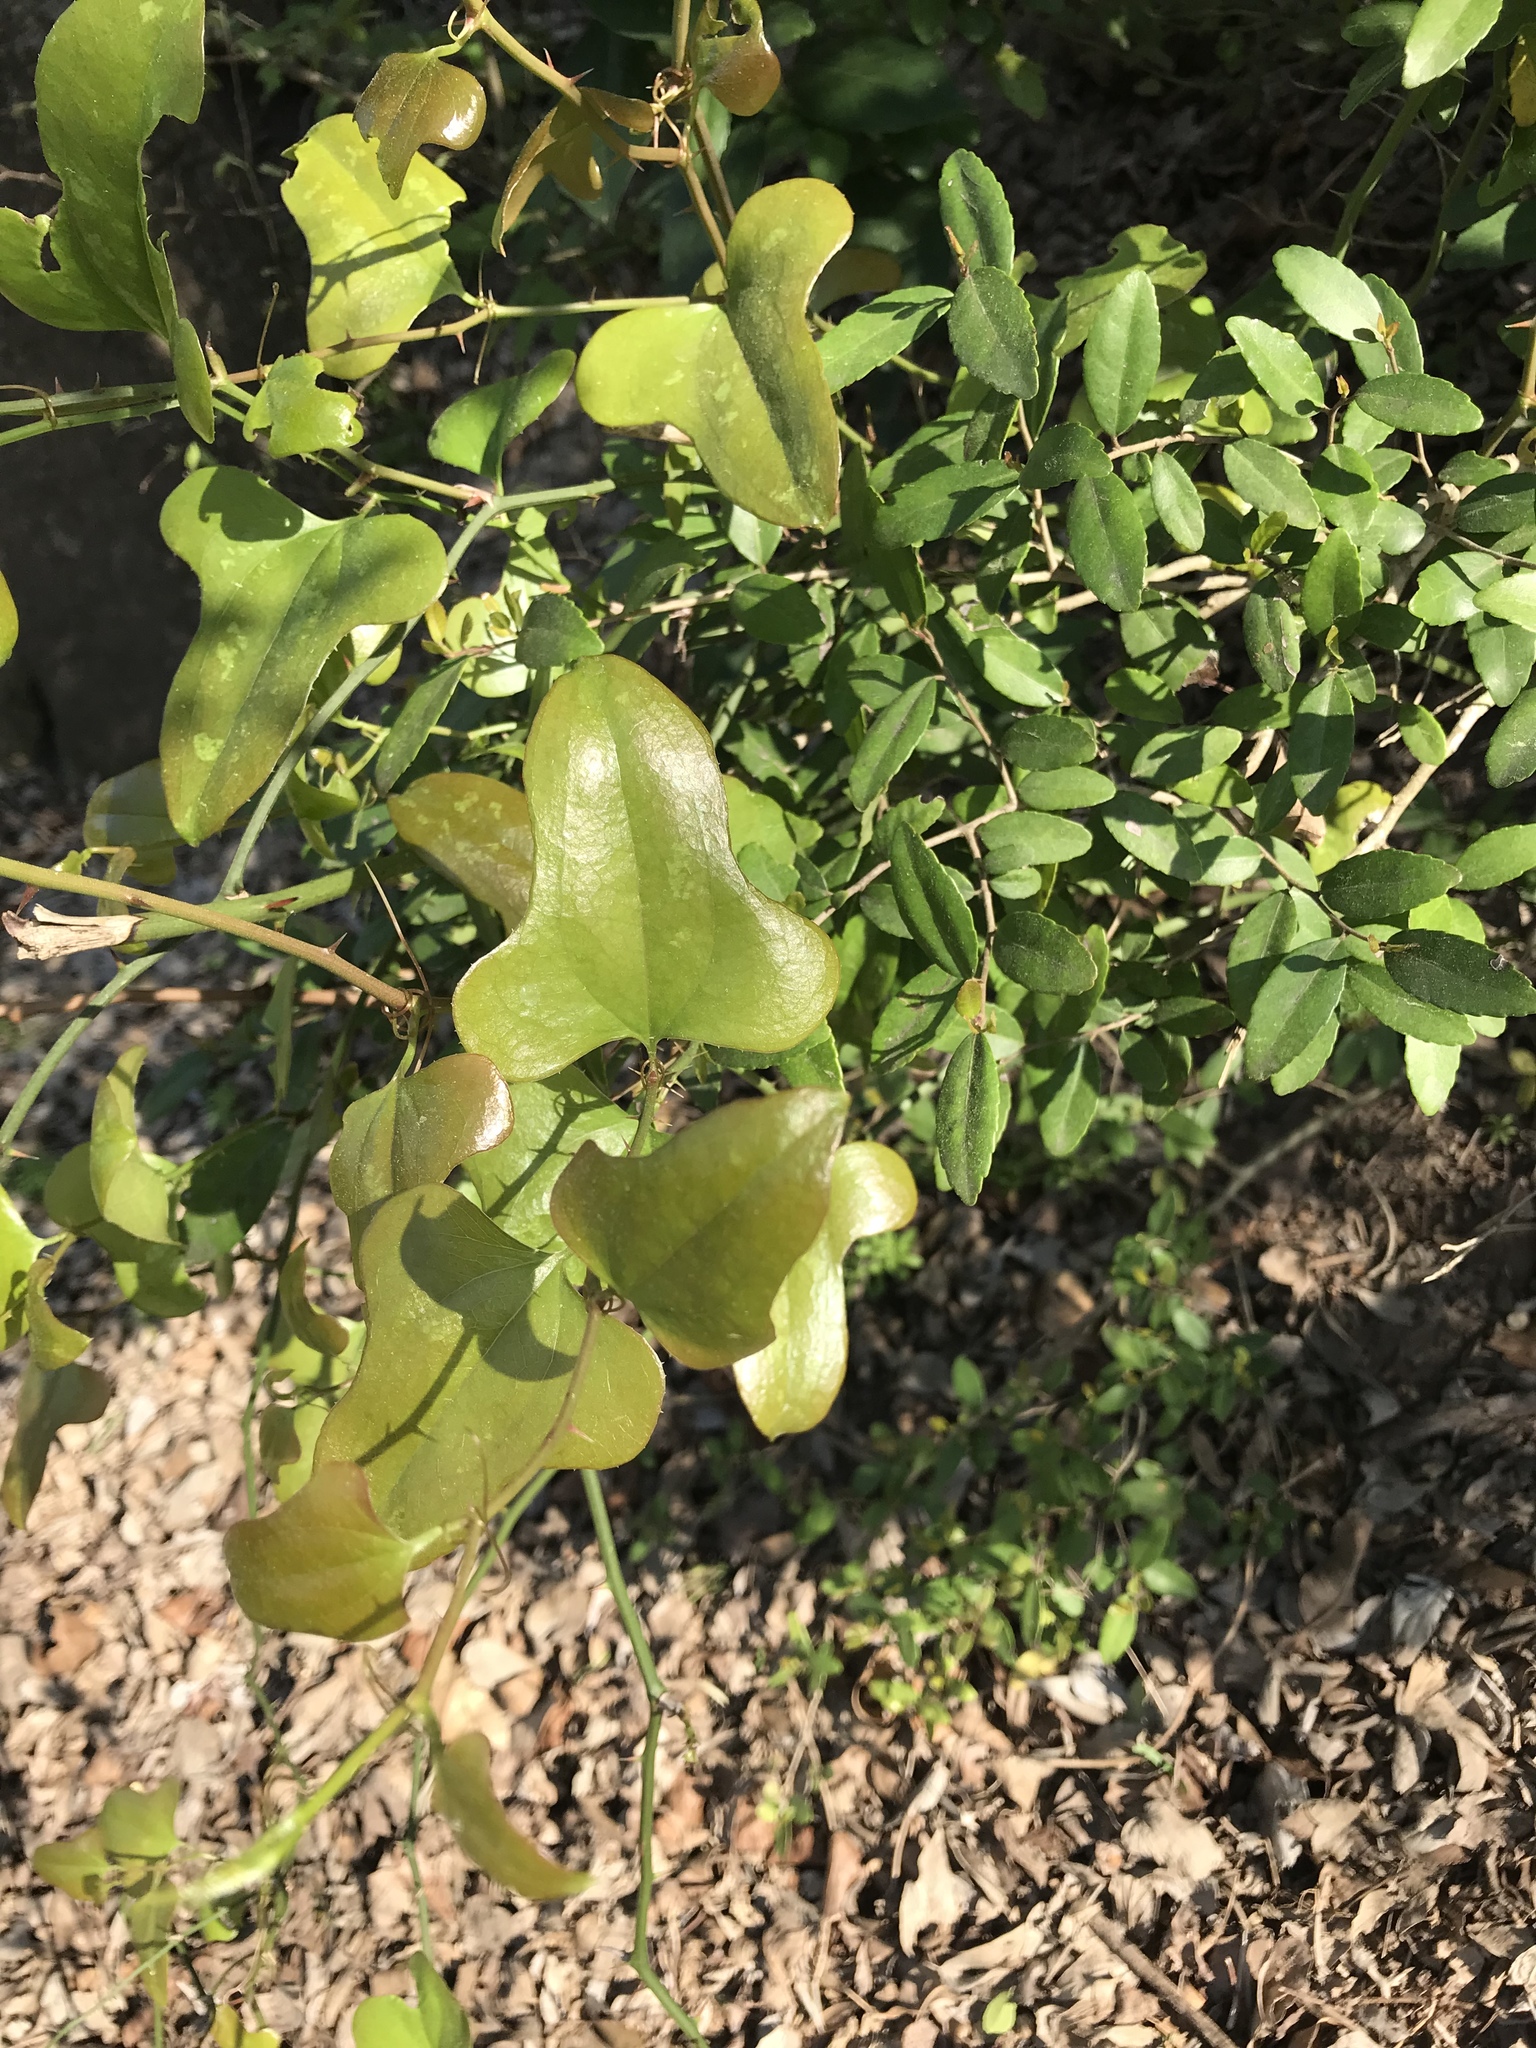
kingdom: Plantae
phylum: Tracheophyta
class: Liliopsida
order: Liliales
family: Smilacaceae
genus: Smilax
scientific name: Smilax bona-nox
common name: Catbrier
